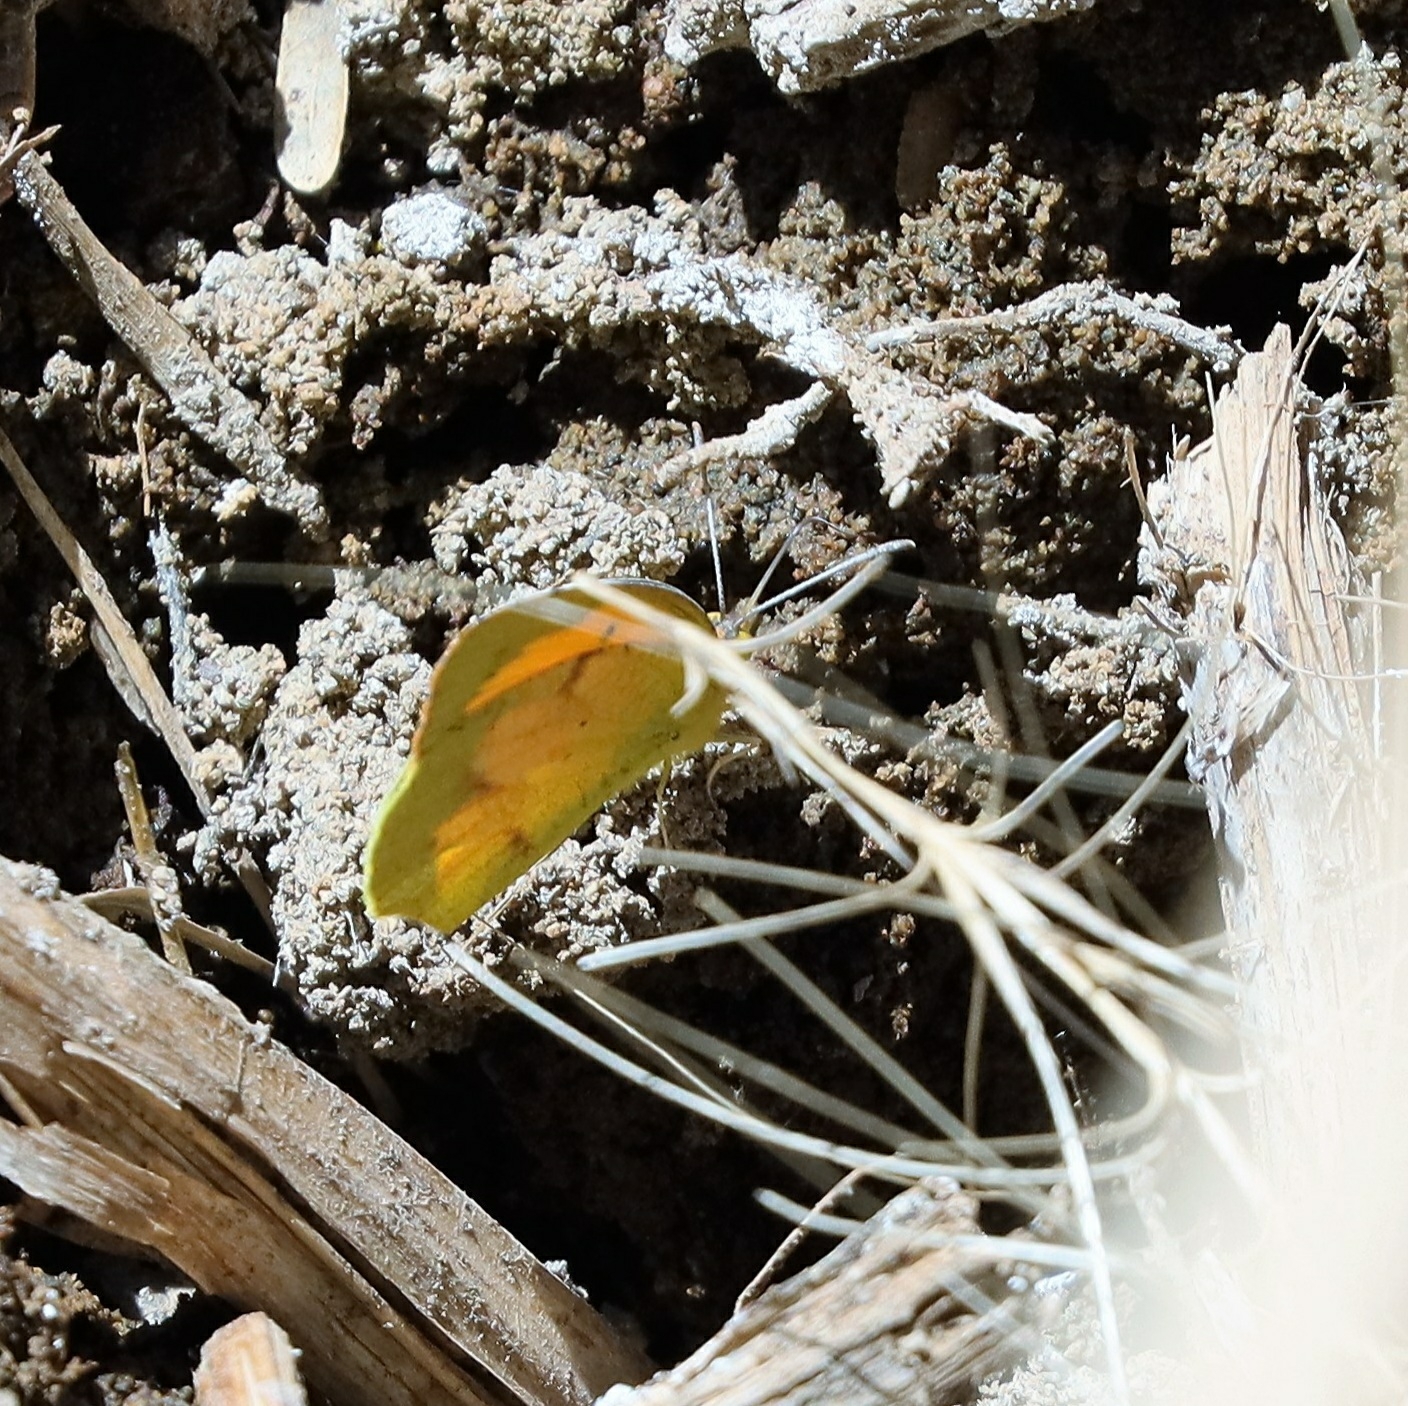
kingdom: Animalia
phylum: Arthropoda
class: Insecta
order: Lepidoptera
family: Pieridae
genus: Abaeis
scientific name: Abaeis nicippe
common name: Sleepy orange
